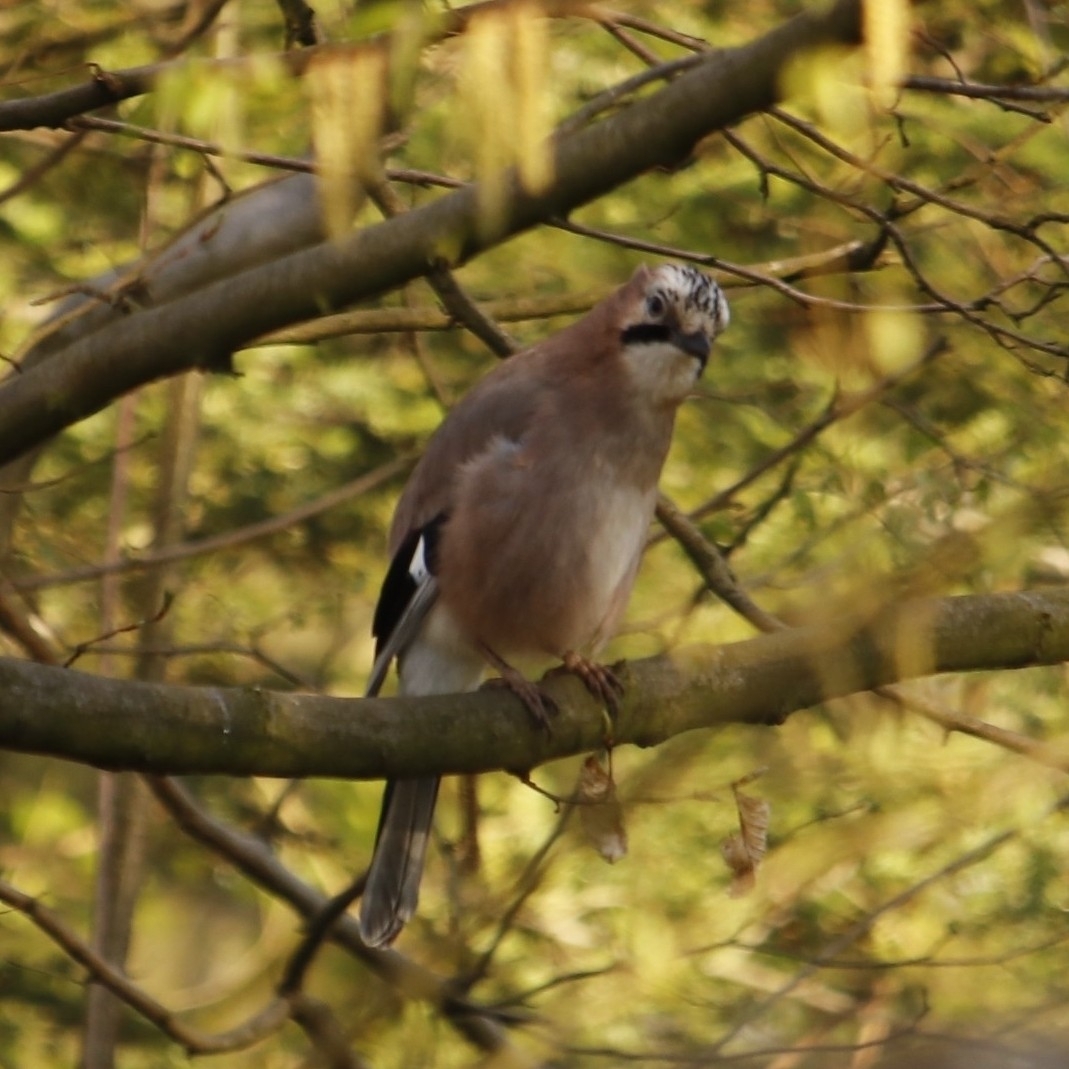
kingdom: Animalia
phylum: Chordata
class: Aves
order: Passeriformes
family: Corvidae
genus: Garrulus
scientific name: Garrulus glandarius
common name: Eurasian jay
